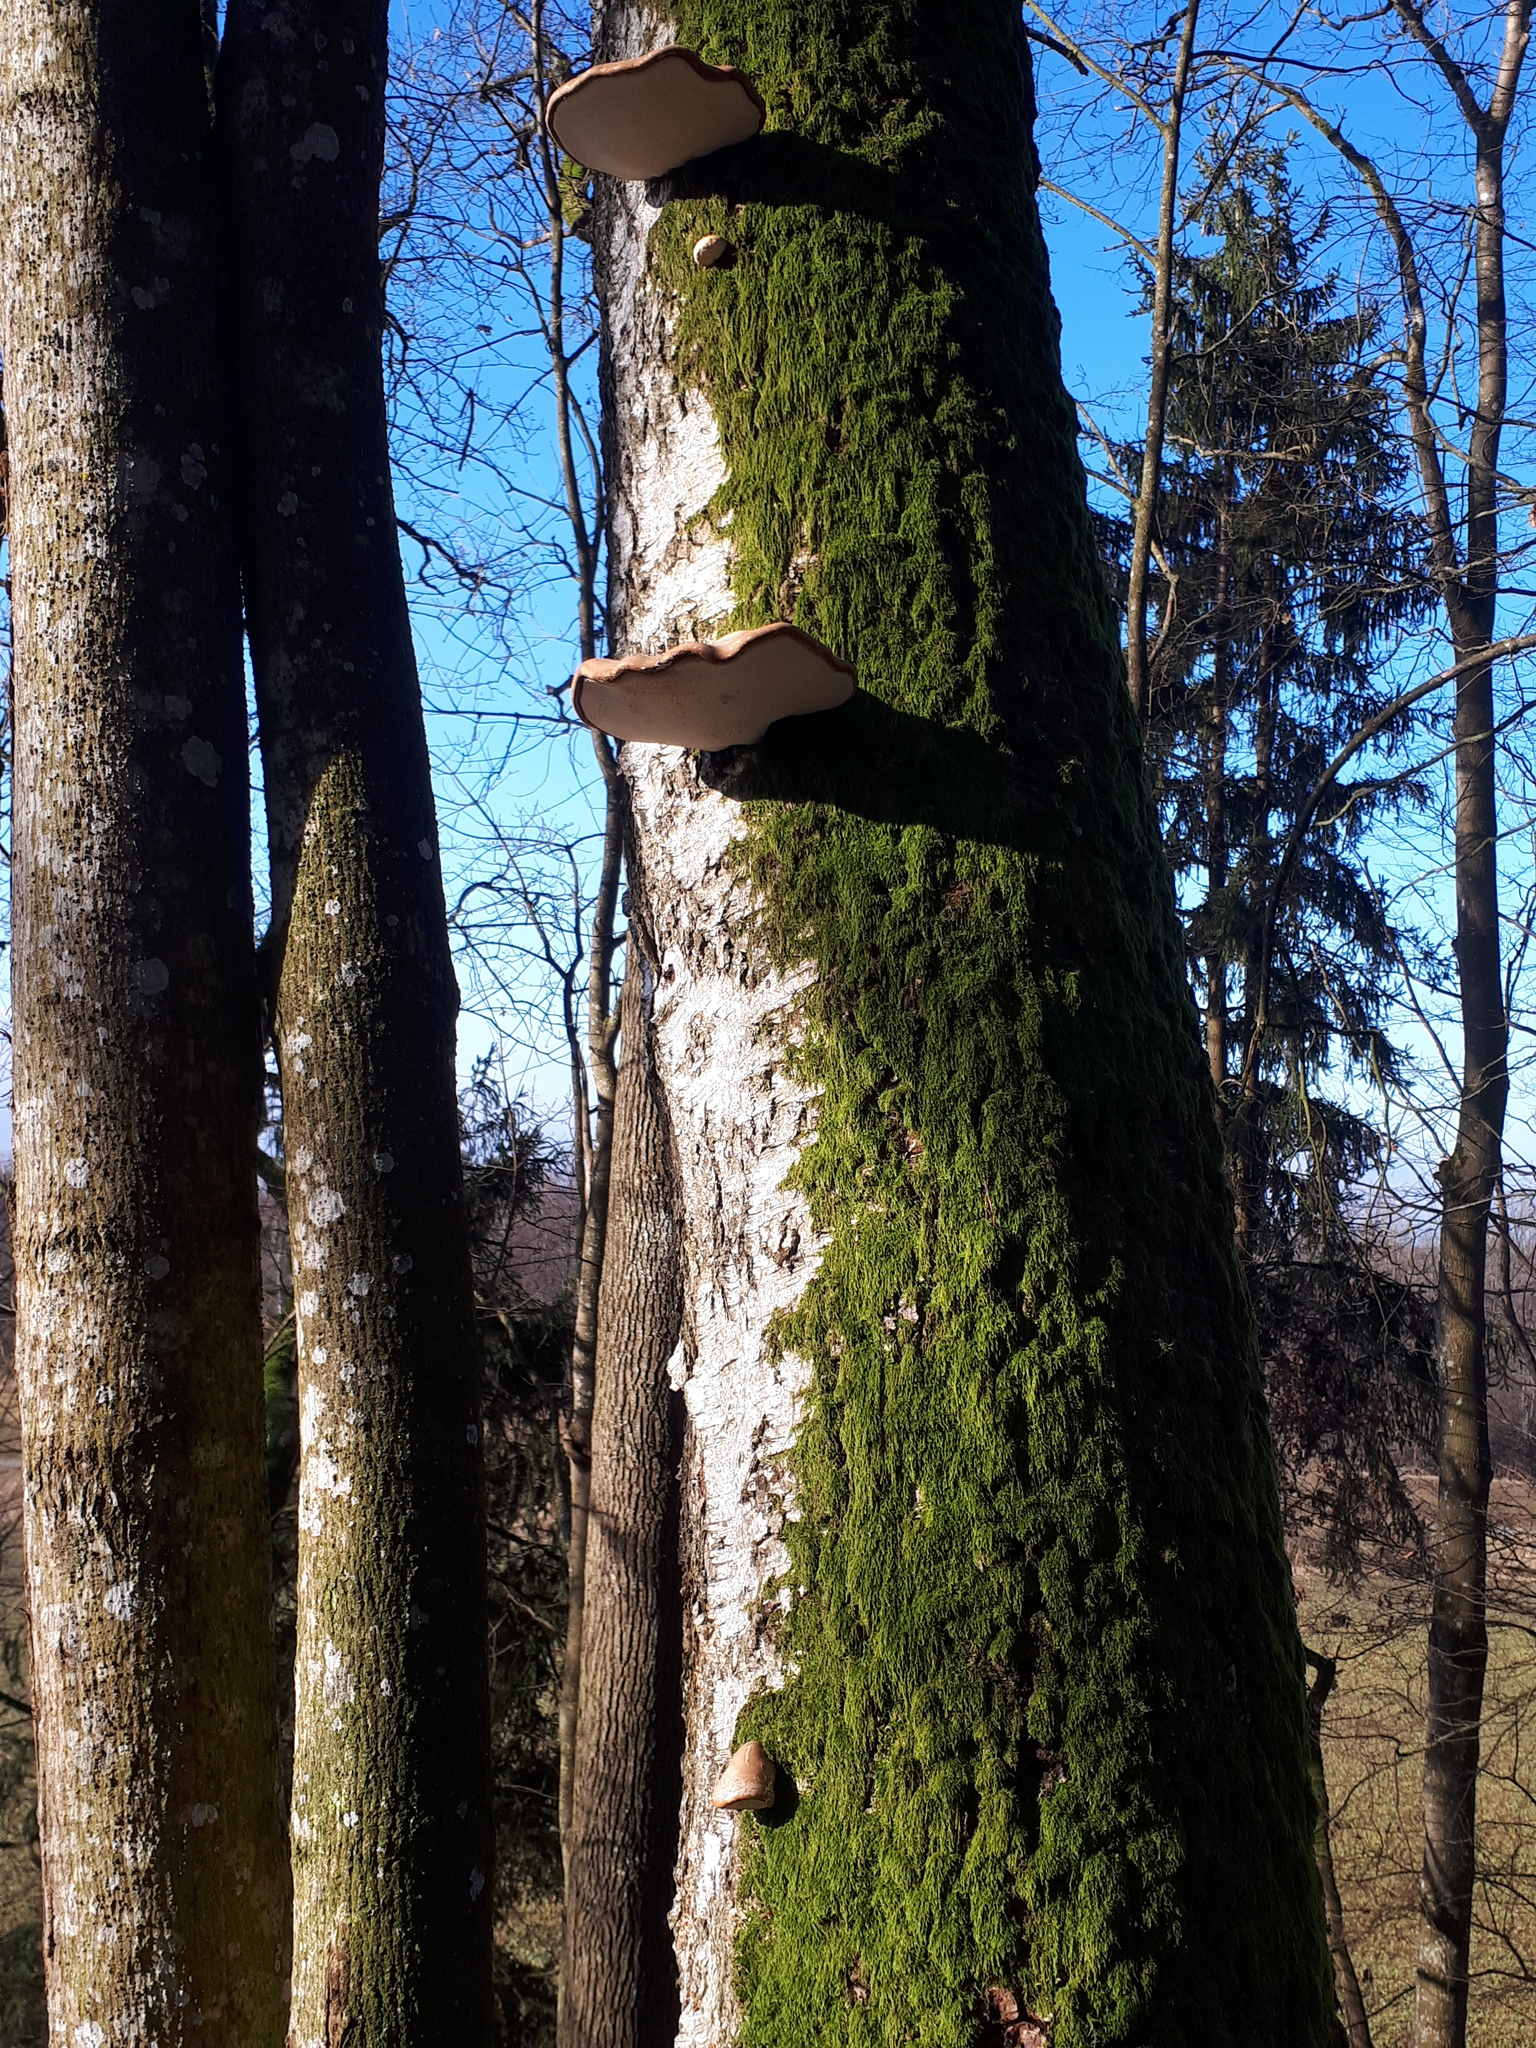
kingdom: Fungi
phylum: Basidiomycota
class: Agaricomycetes
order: Polyporales
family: Fomitopsidaceae
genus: Fomitopsis
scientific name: Fomitopsis betulina
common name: Birch polypore
